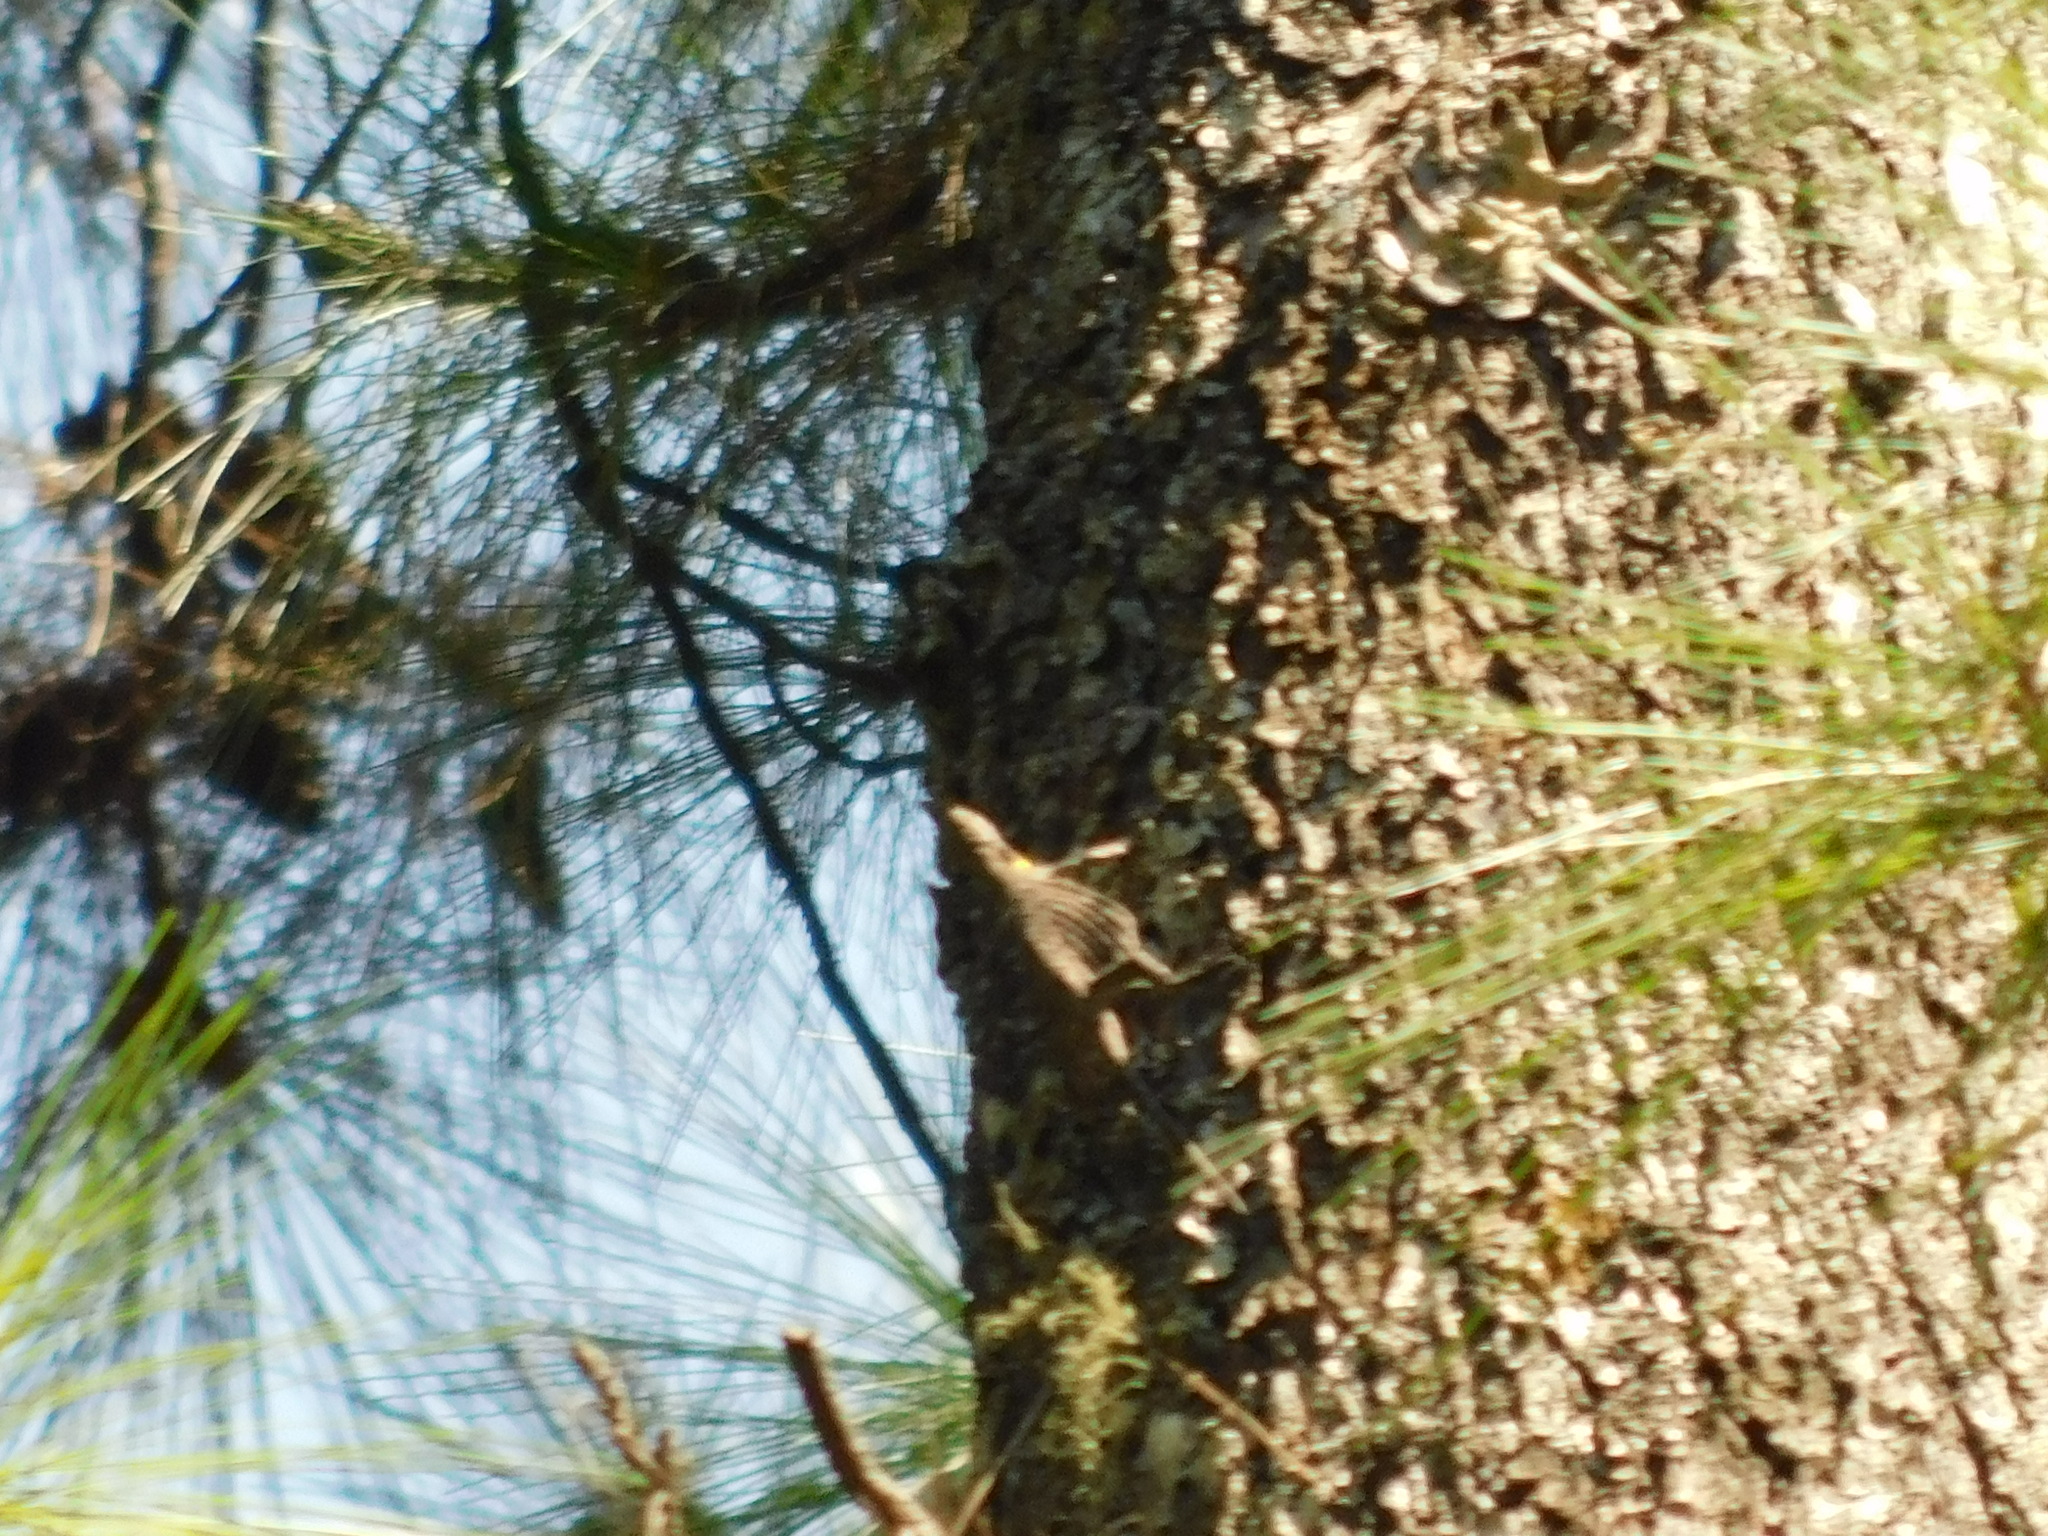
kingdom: Animalia
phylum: Chordata
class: Squamata
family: Agamidae
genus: Draco
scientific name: Draco volans
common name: Common flying dragon
